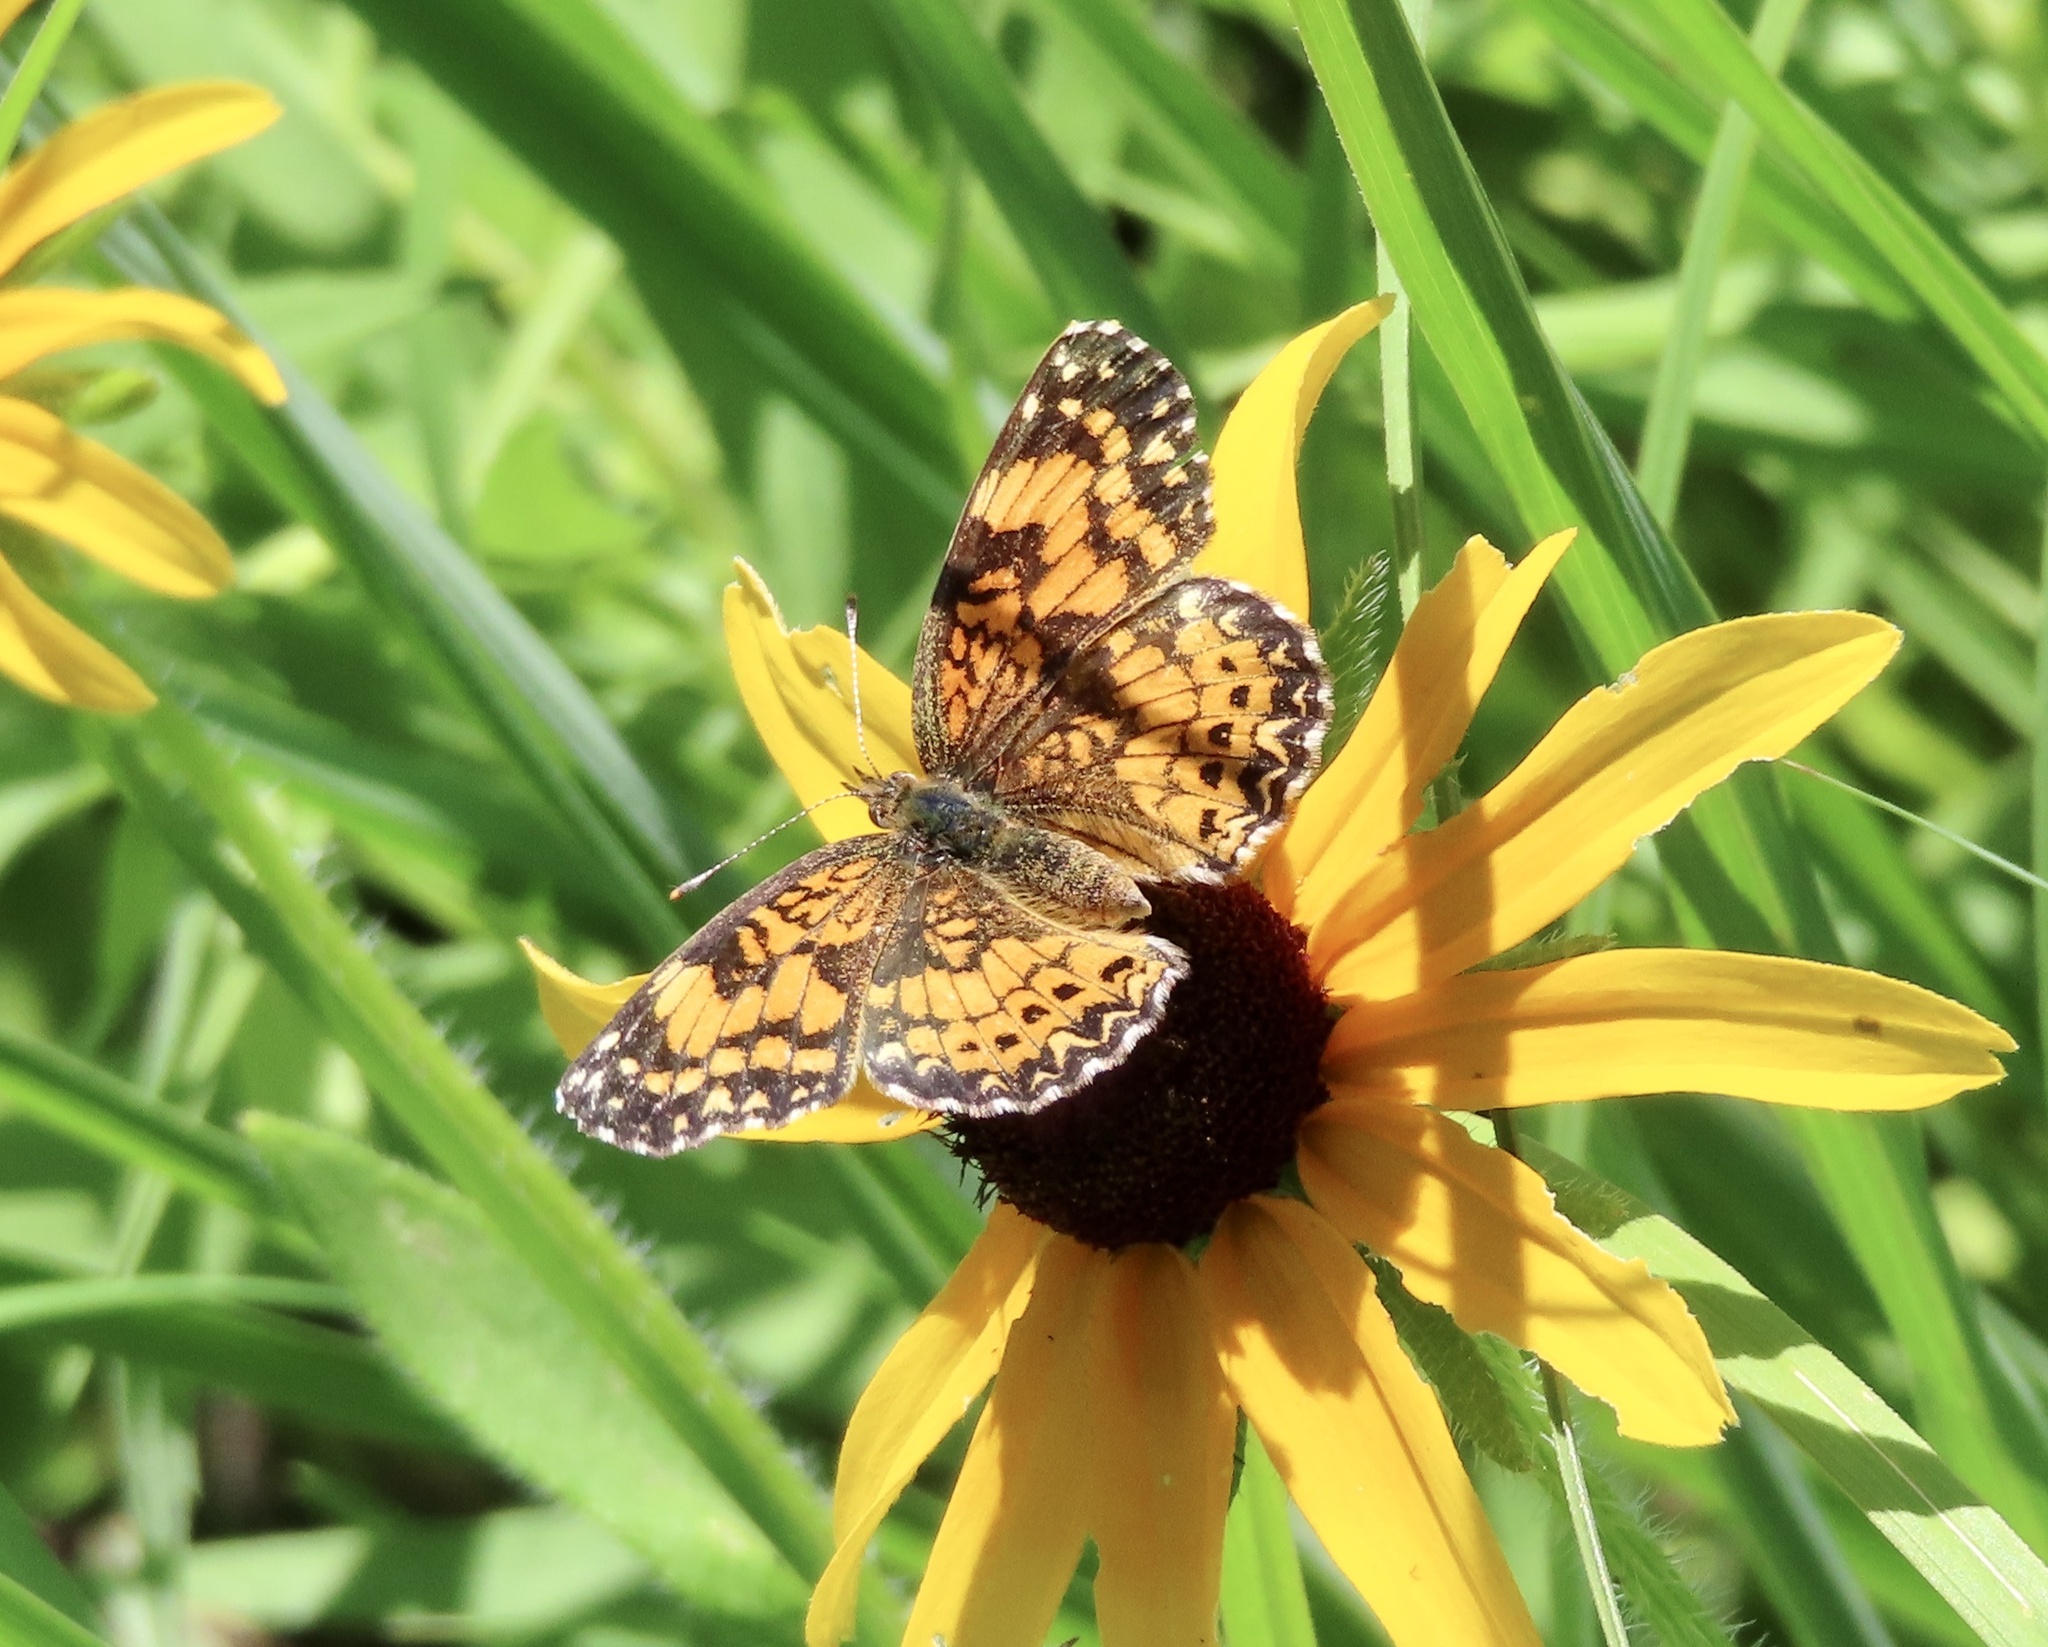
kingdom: Animalia
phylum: Arthropoda
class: Insecta
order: Lepidoptera
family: Nymphalidae
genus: Chlosyne
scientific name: Chlosyne gorgone
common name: Gorgone checkerspot
